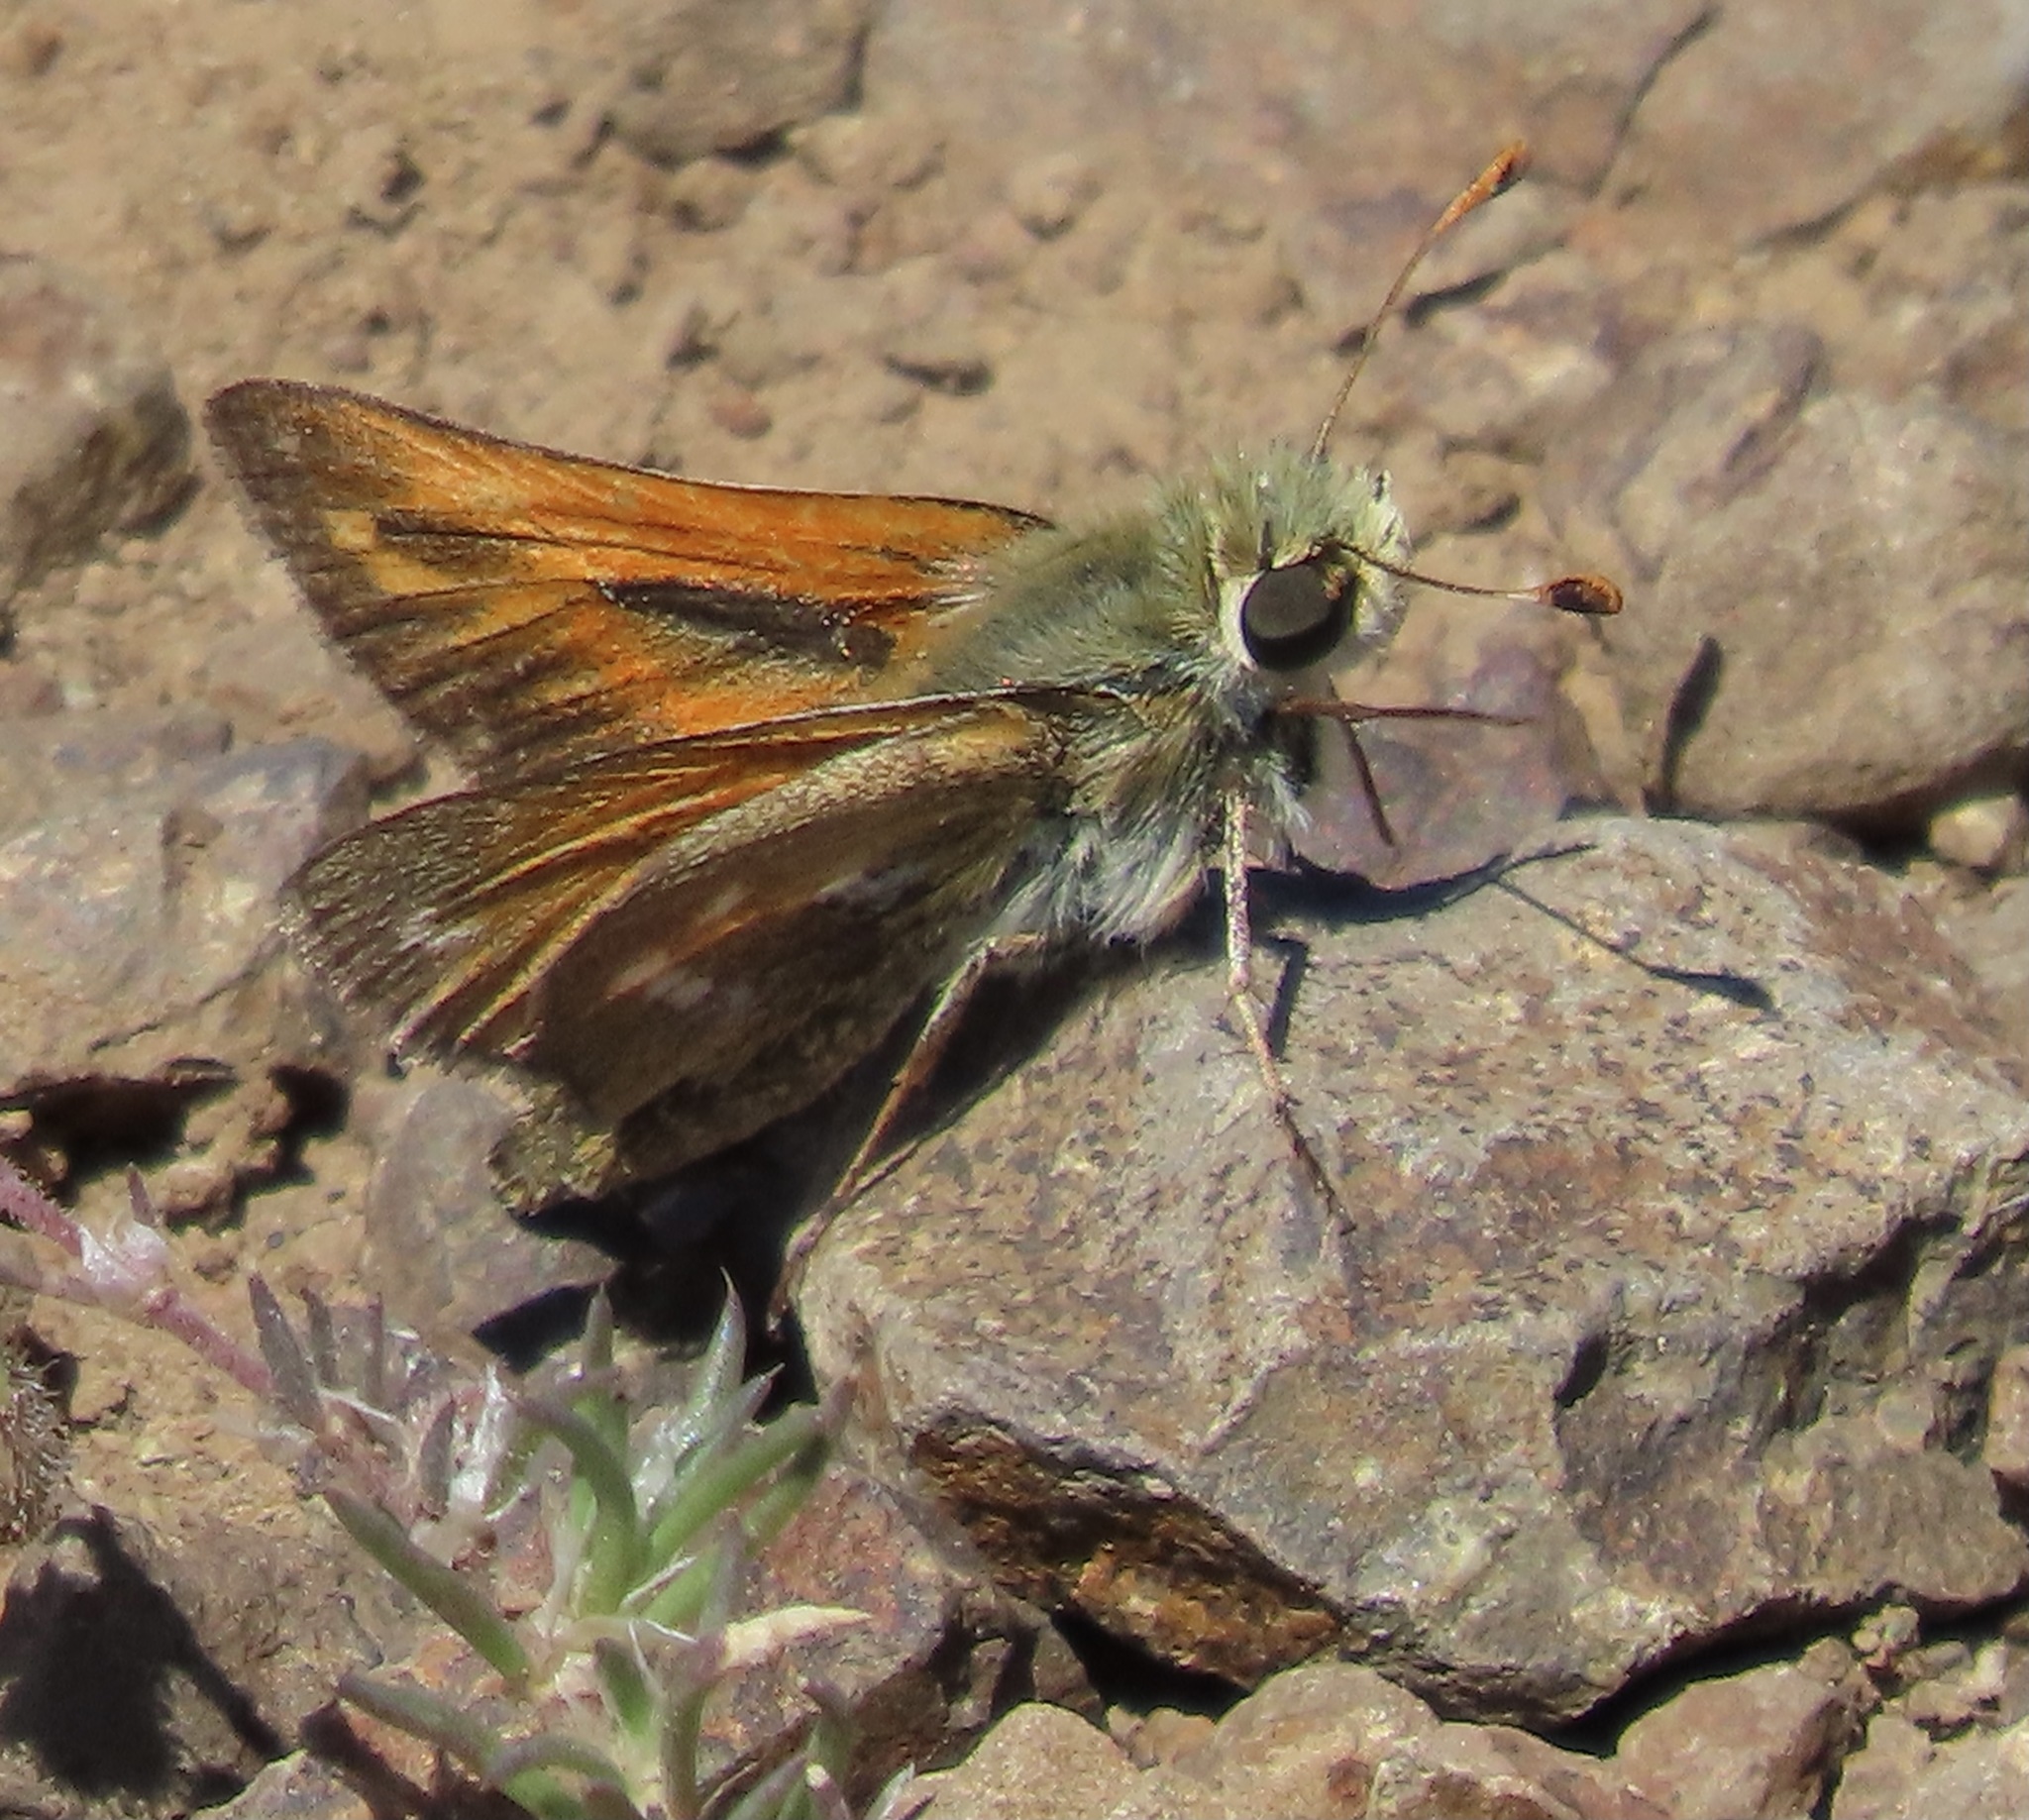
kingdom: Animalia
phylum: Arthropoda
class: Insecta
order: Lepidoptera
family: Hesperiidae
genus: Hesperia
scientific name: Hesperia columbia
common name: Columbian skipper
